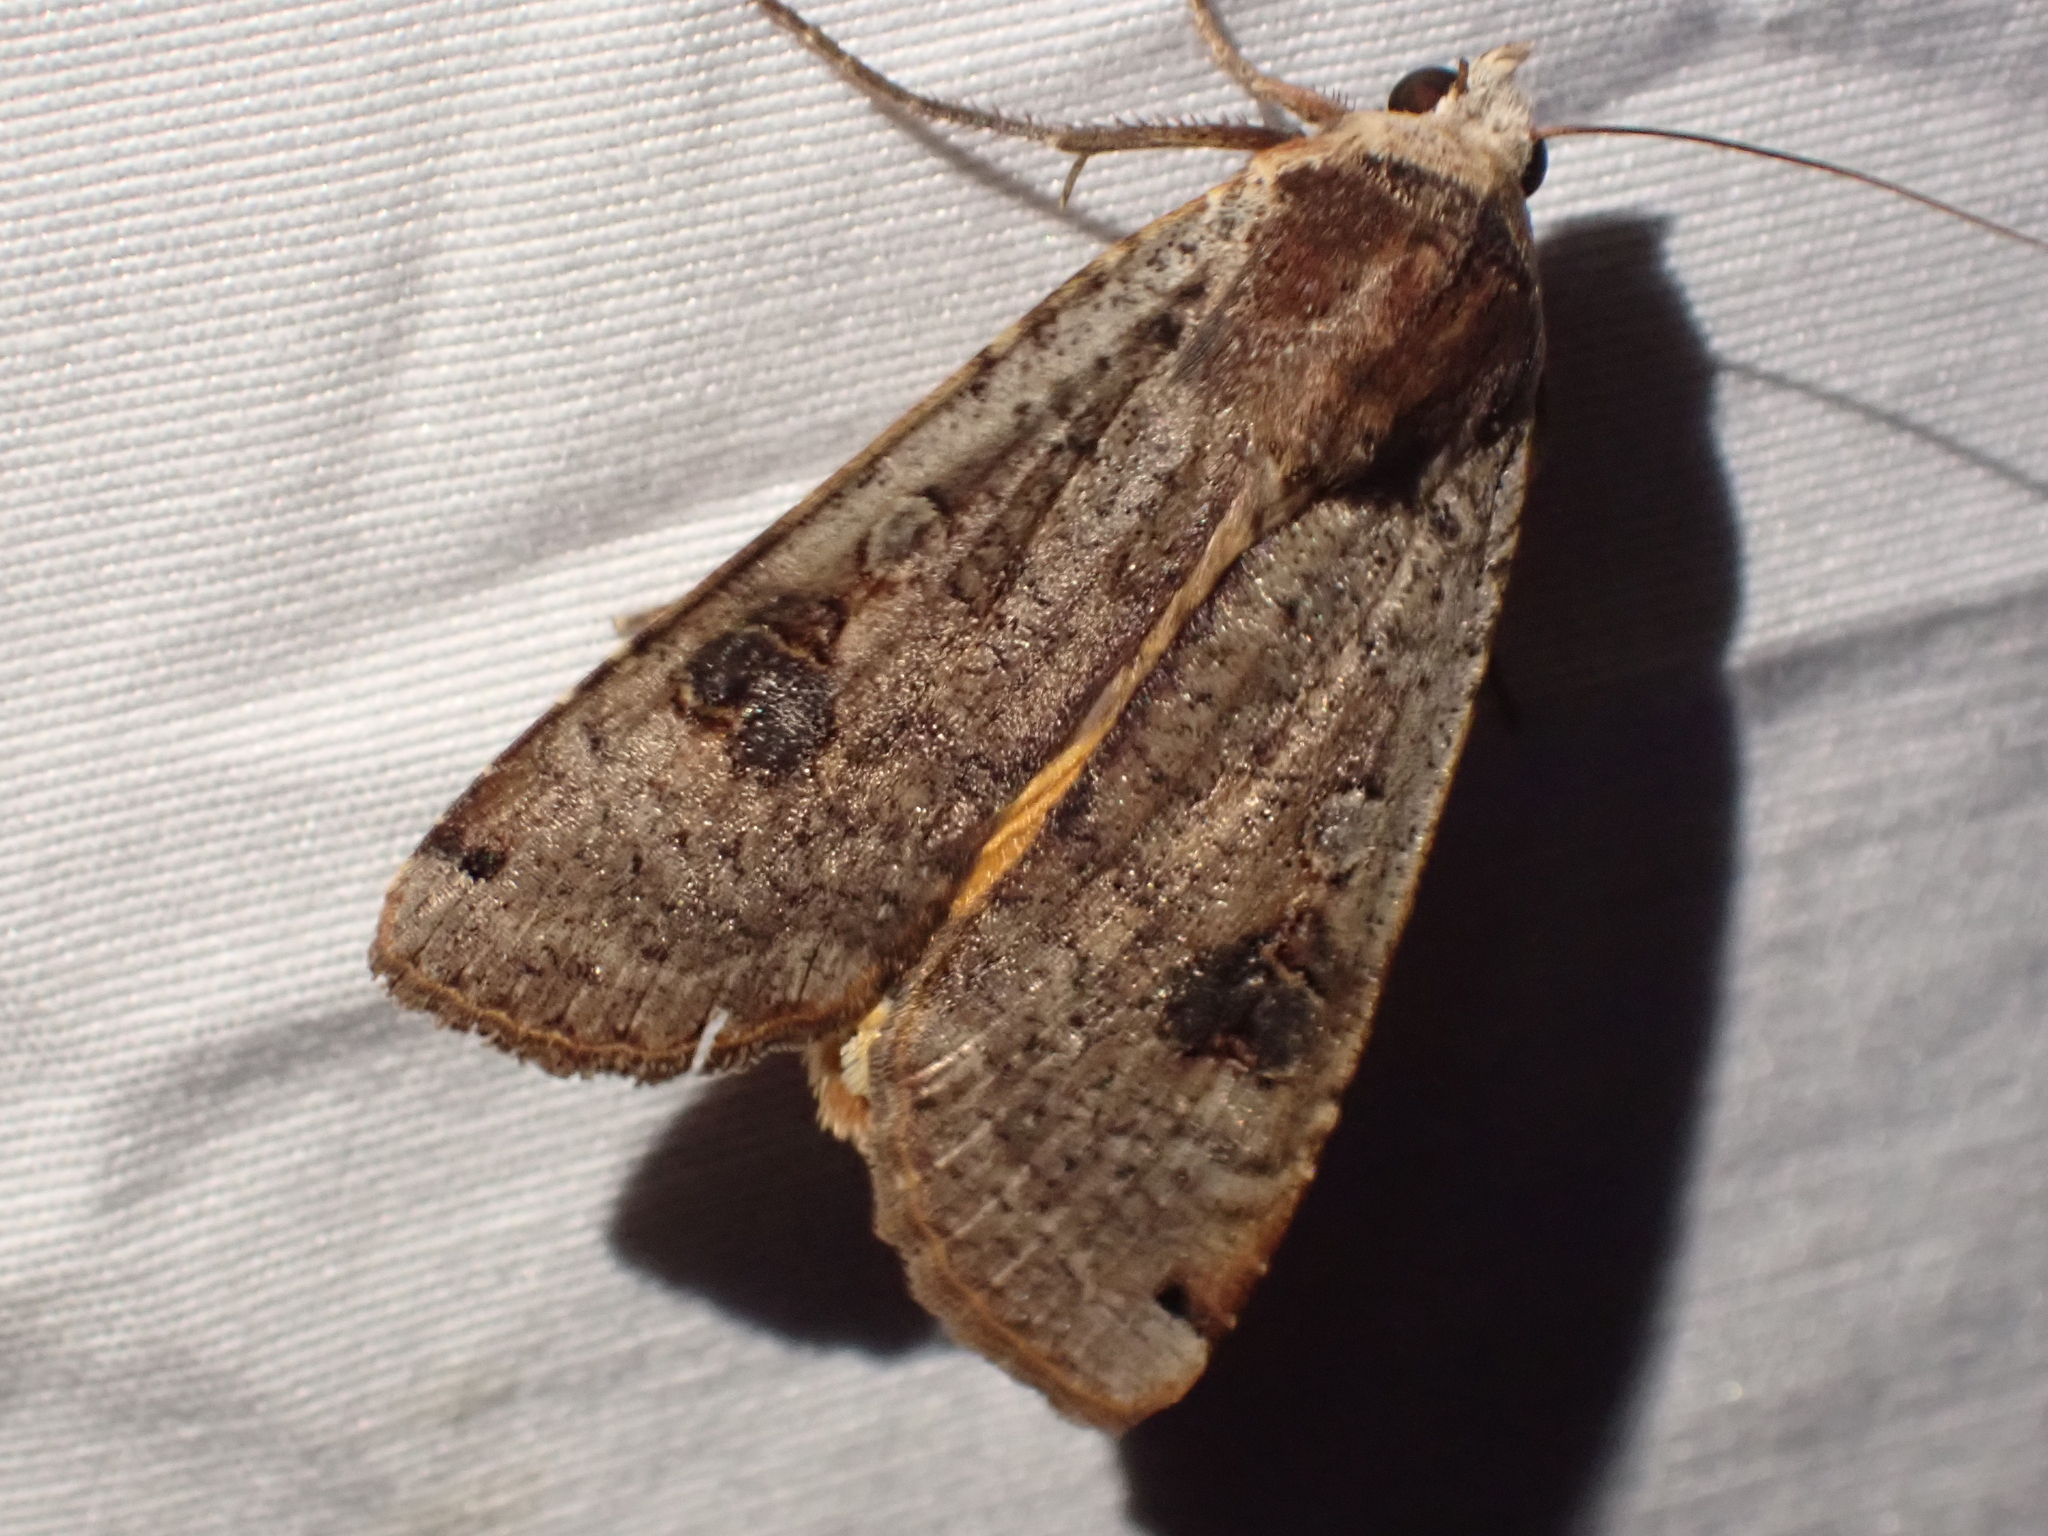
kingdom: Animalia
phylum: Arthropoda
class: Insecta
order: Lepidoptera
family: Noctuidae
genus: Noctua
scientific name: Noctua pronuba
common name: Large yellow underwing
